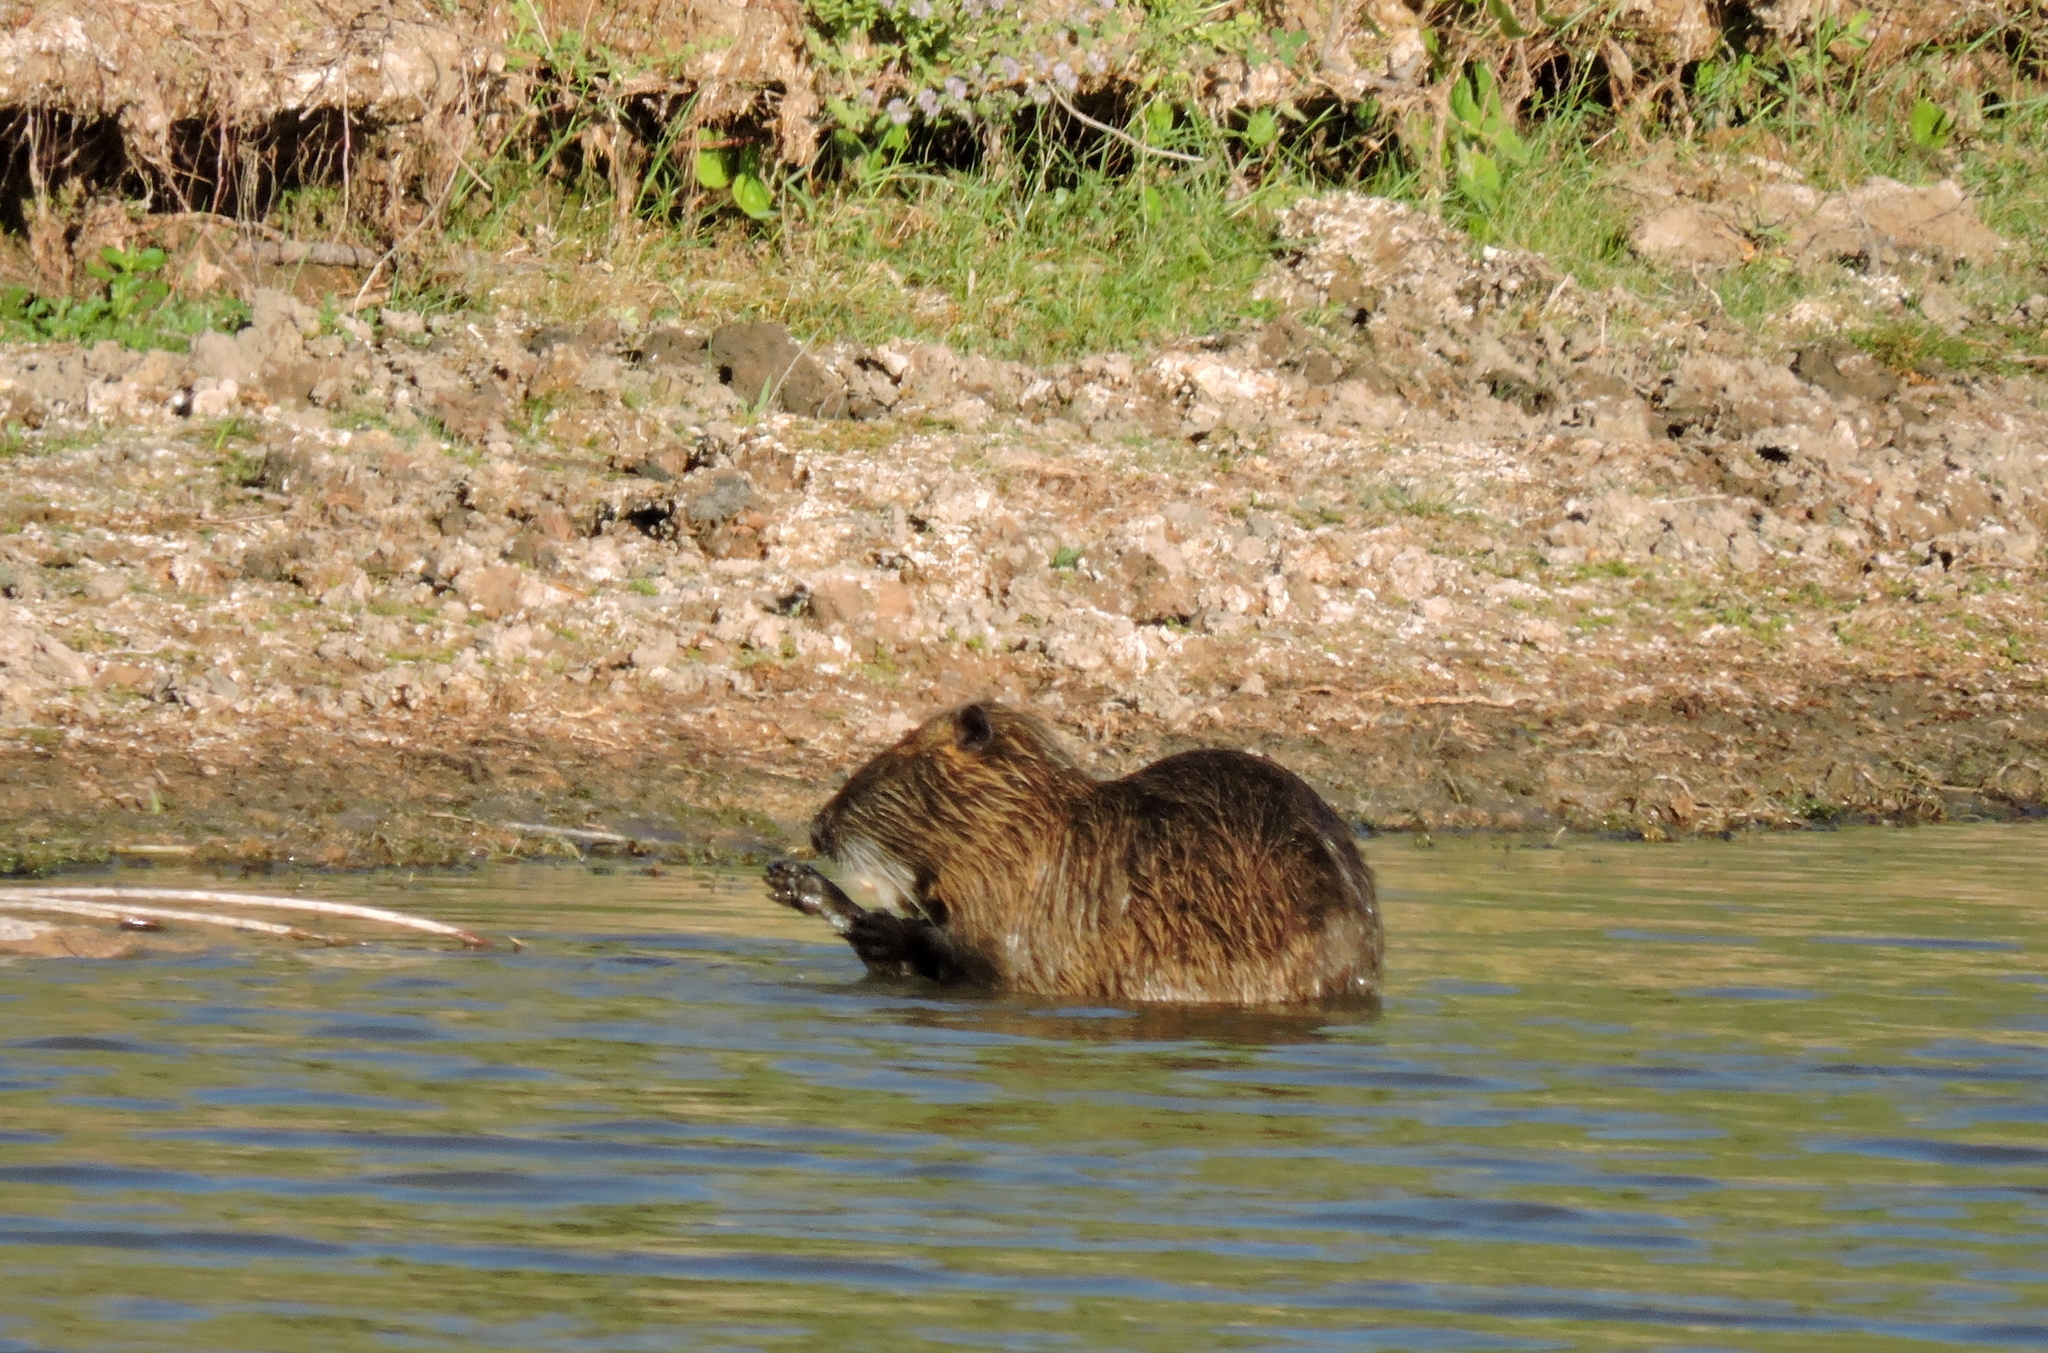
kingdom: Animalia
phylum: Chordata
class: Mammalia
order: Rodentia
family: Myocastoridae
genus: Myocastor
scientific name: Myocastor coypus
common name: Coypu
